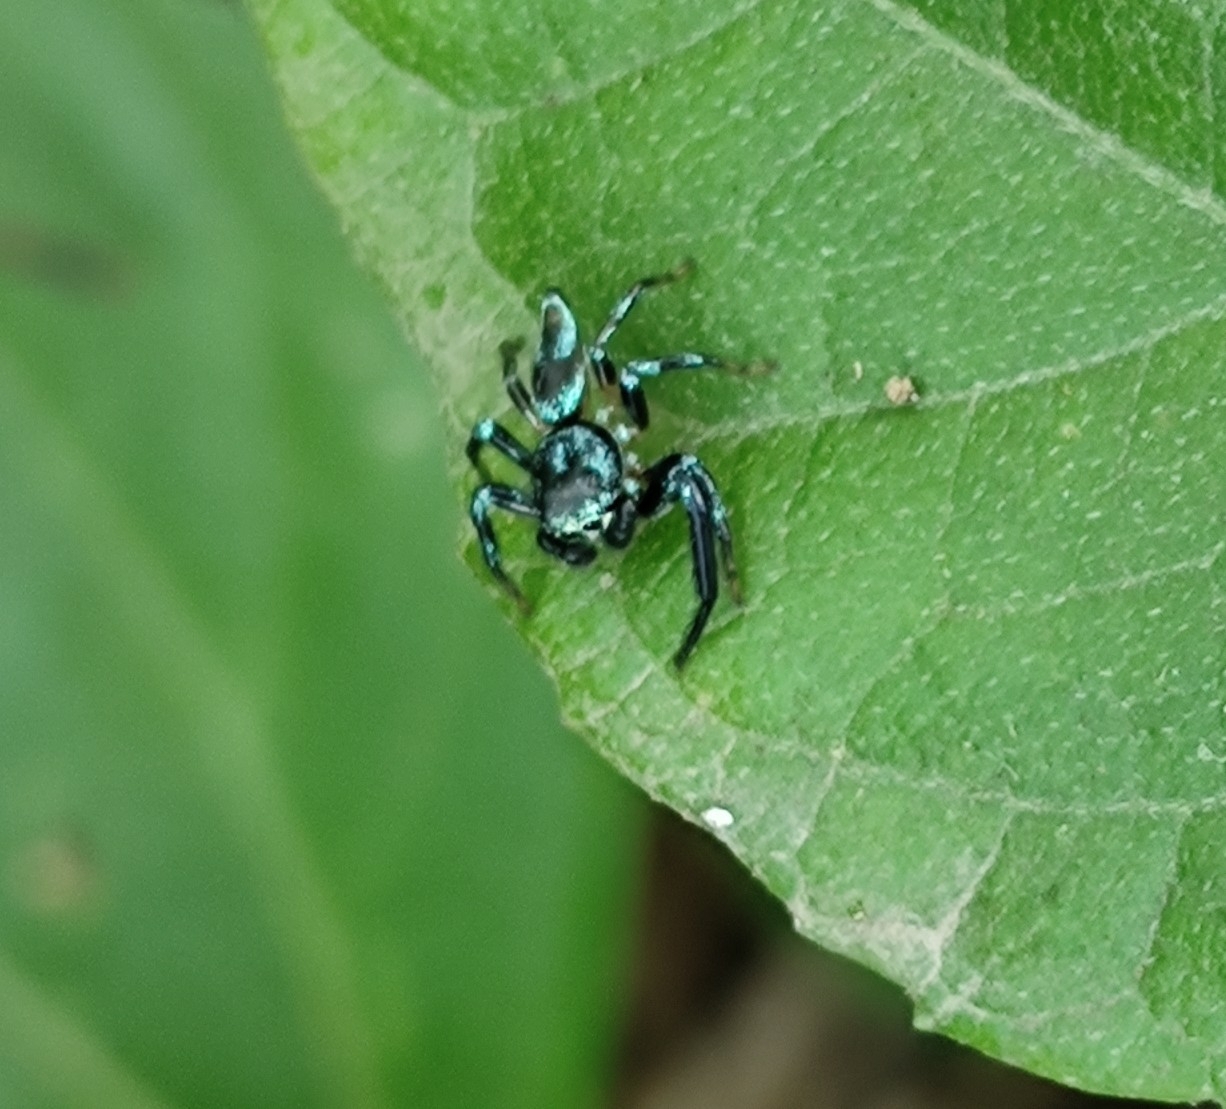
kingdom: Animalia
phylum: Arthropoda
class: Arachnida
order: Araneae
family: Salticidae
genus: Thiania
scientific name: Thiania bhamoensis
